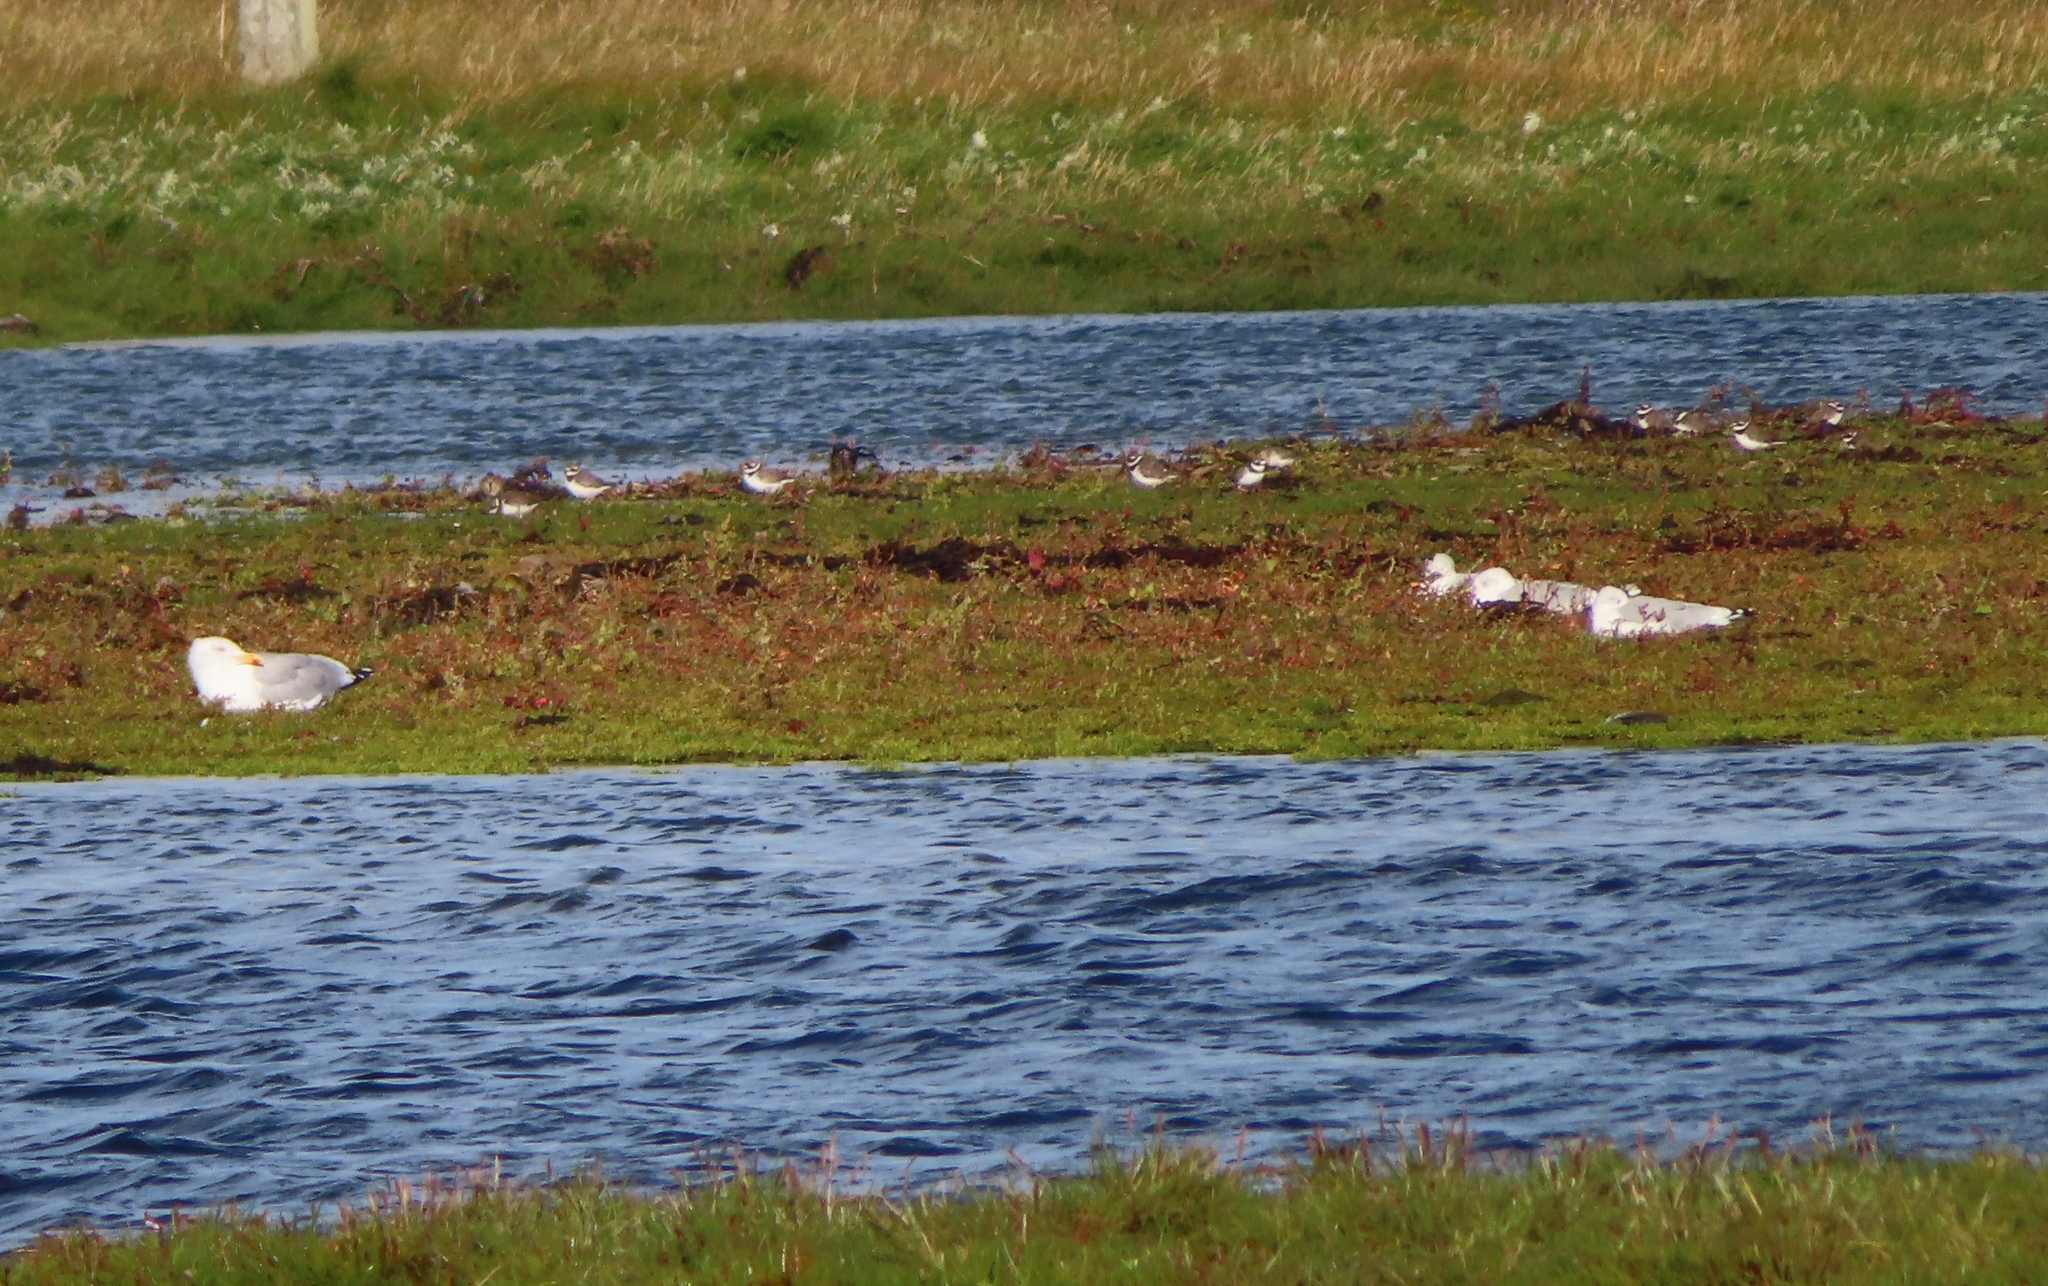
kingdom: Animalia
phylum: Chordata
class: Aves
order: Charadriiformes
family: Laridae
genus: Larus
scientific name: Larus argentatus
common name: Herring gull
